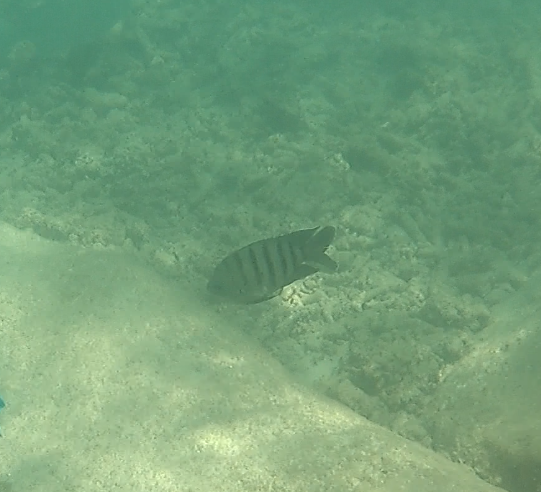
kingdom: Animalia
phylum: Chordata
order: Perciformes
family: Pomacentridae
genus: Abudefduf
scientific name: Abudefduf bengalensis
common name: Bengal sergeant
